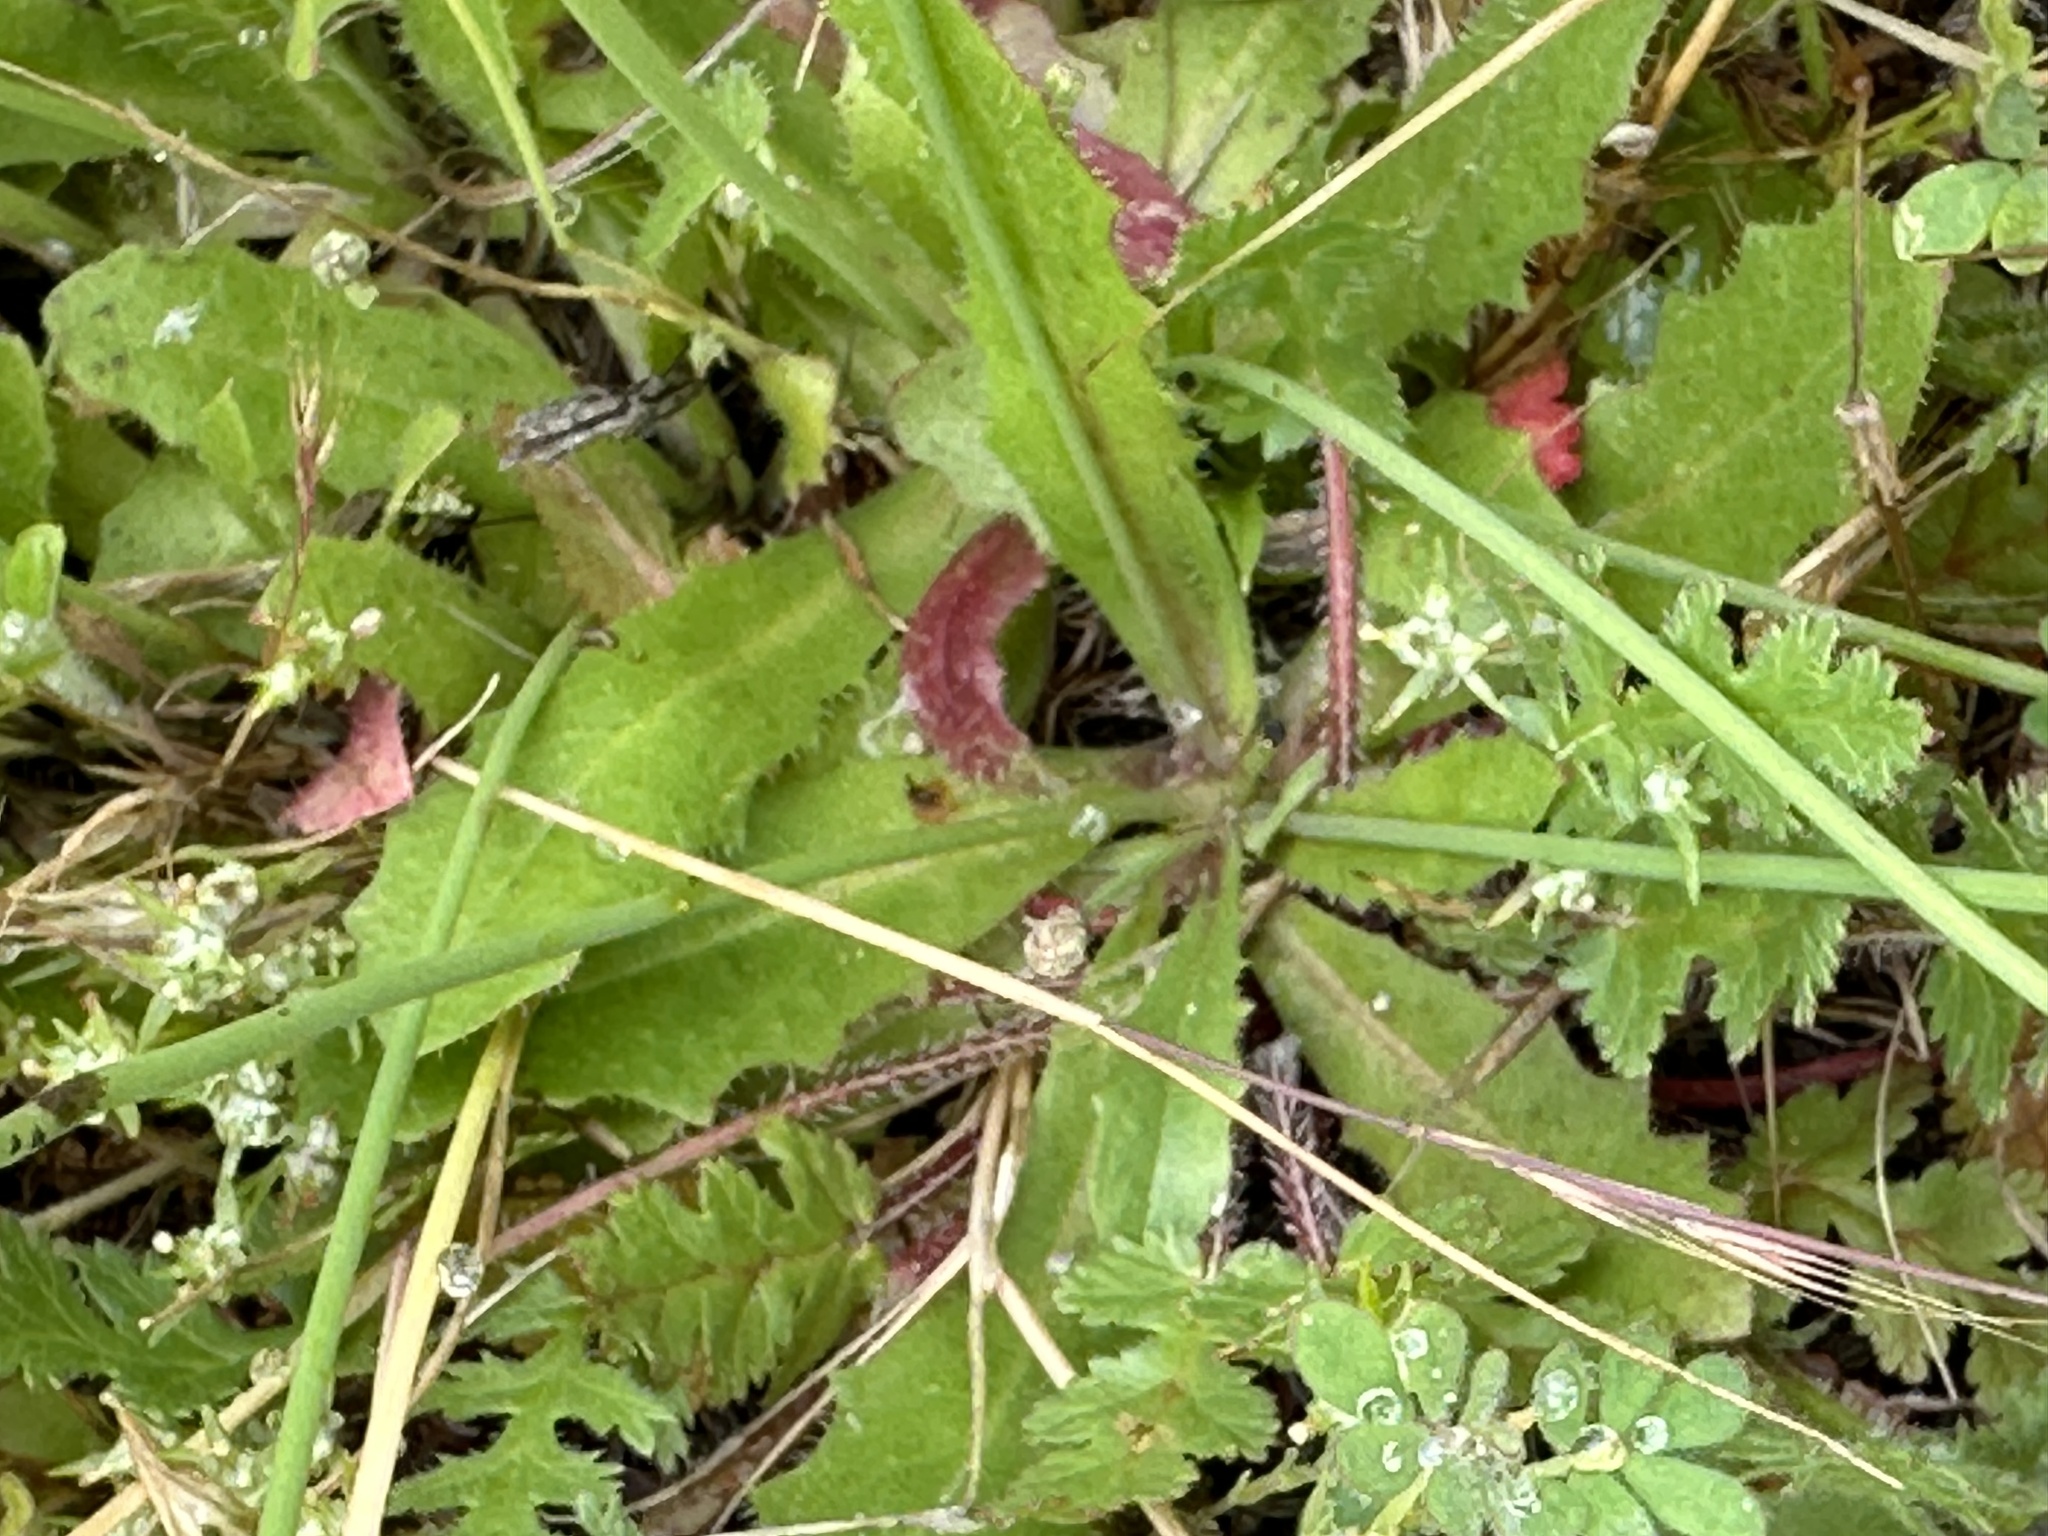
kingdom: Plantae
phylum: Tracheophyta
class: Magnoliopsida
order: Asterales
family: Asteraceae
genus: Hypochaeris
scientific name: Hypochaeris glabra
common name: Smooth catsear
